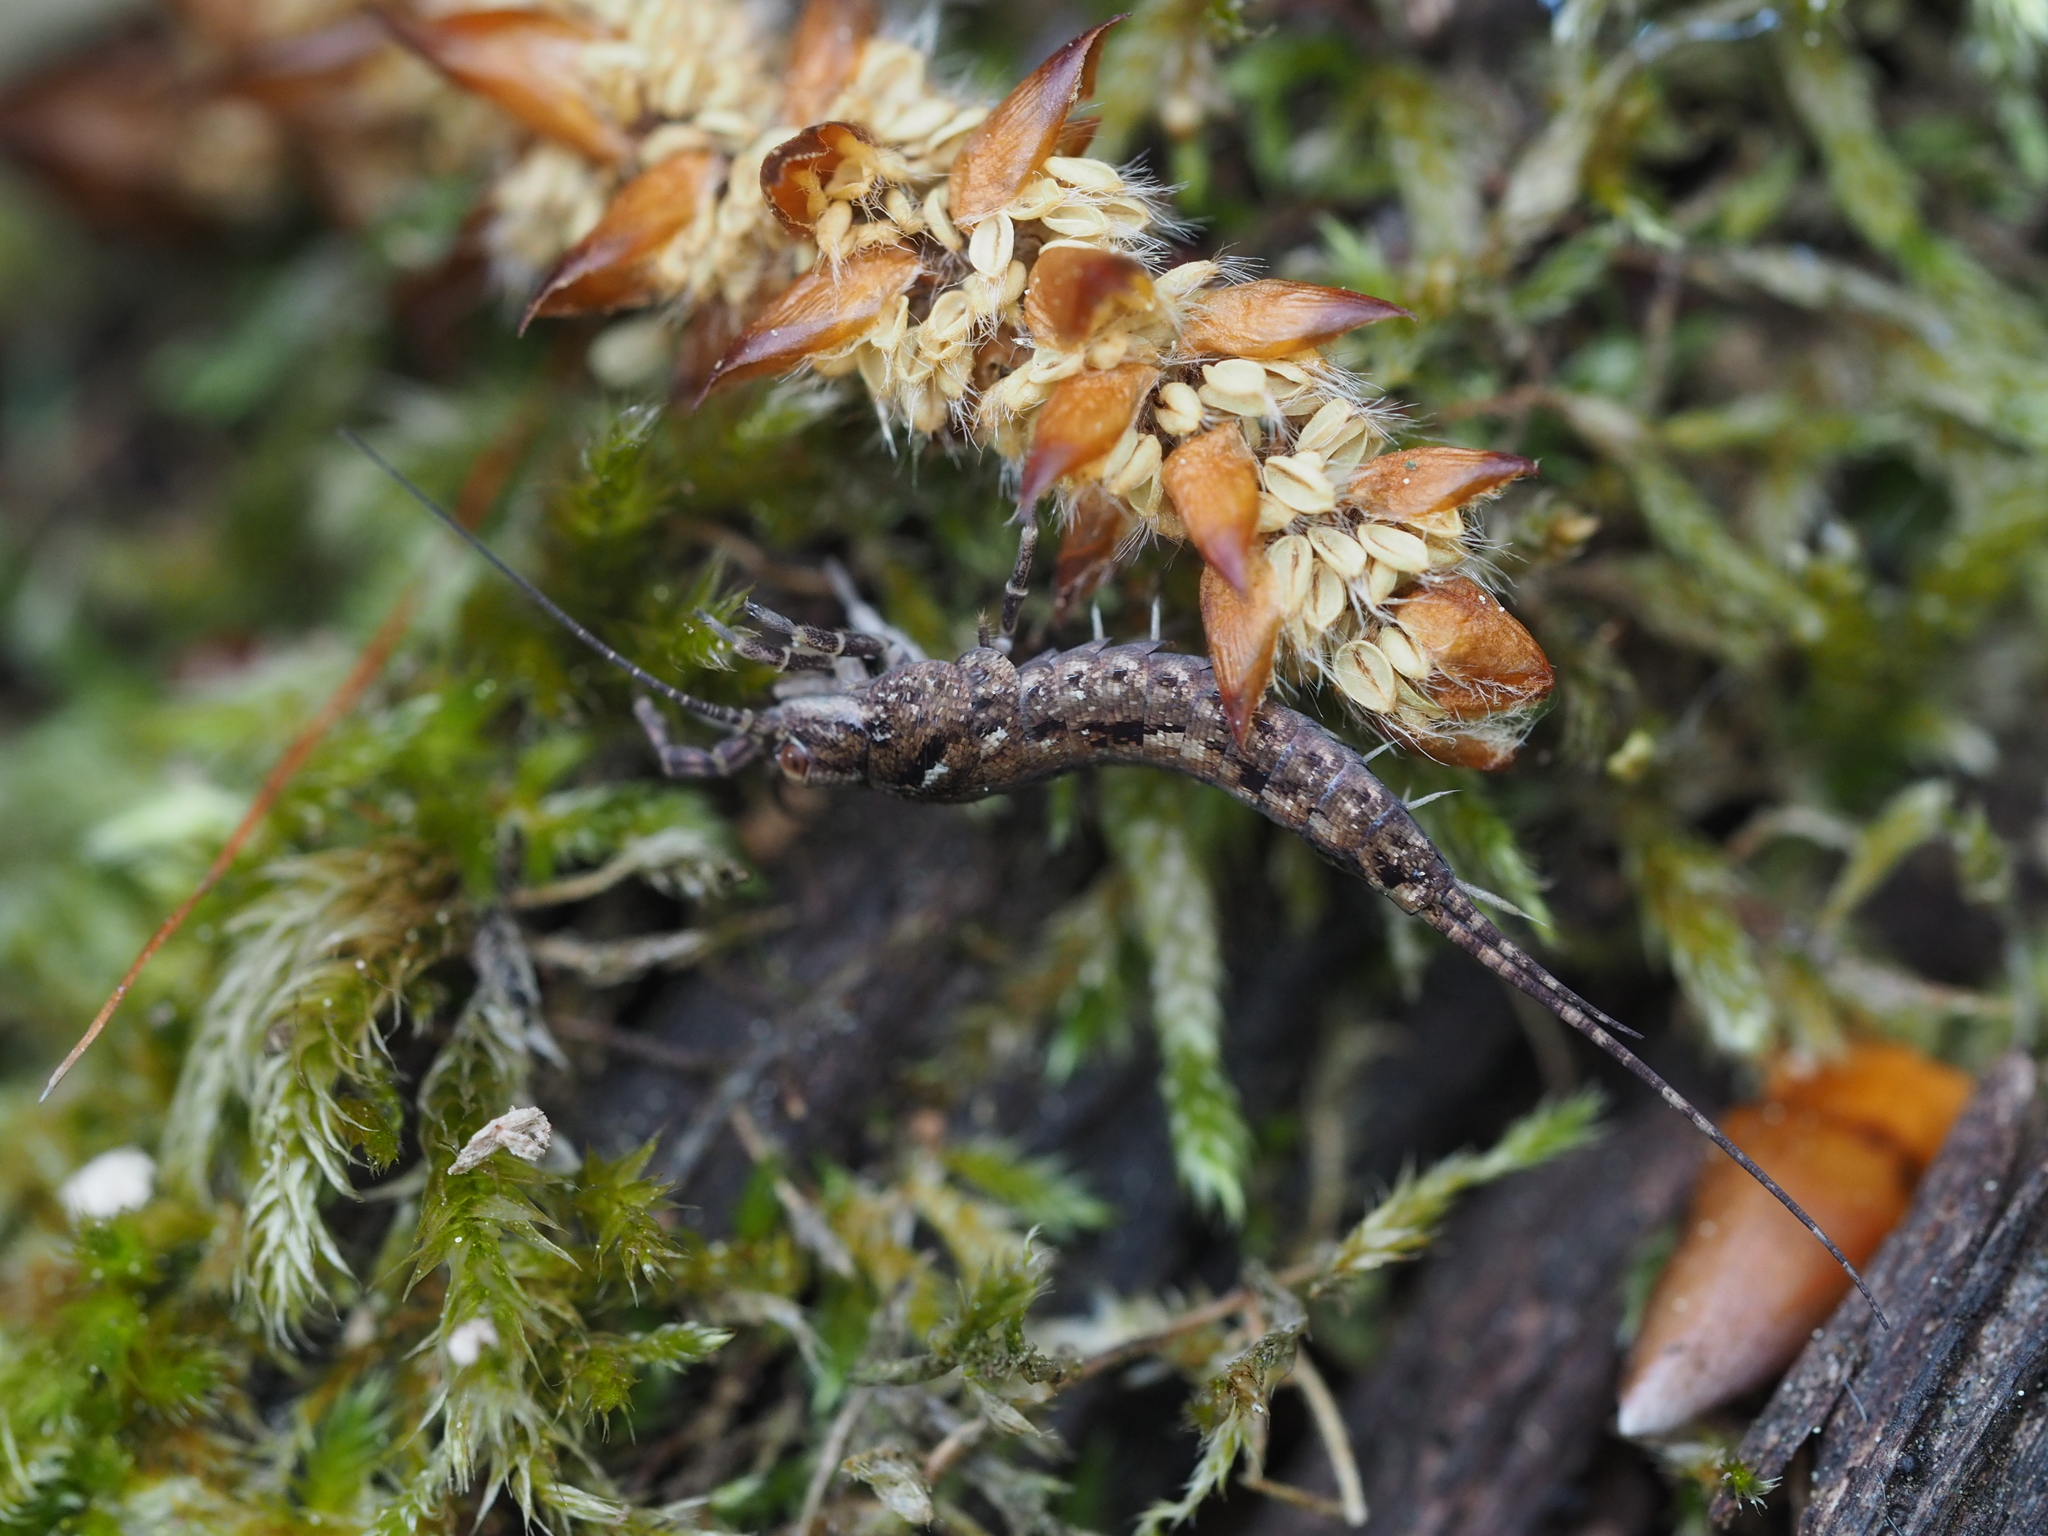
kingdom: Animalia
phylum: Arthropoda
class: Insecta
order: Archaeognatha
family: Machilidae
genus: Lepismachilis
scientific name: Lepismachilis rozsypali
